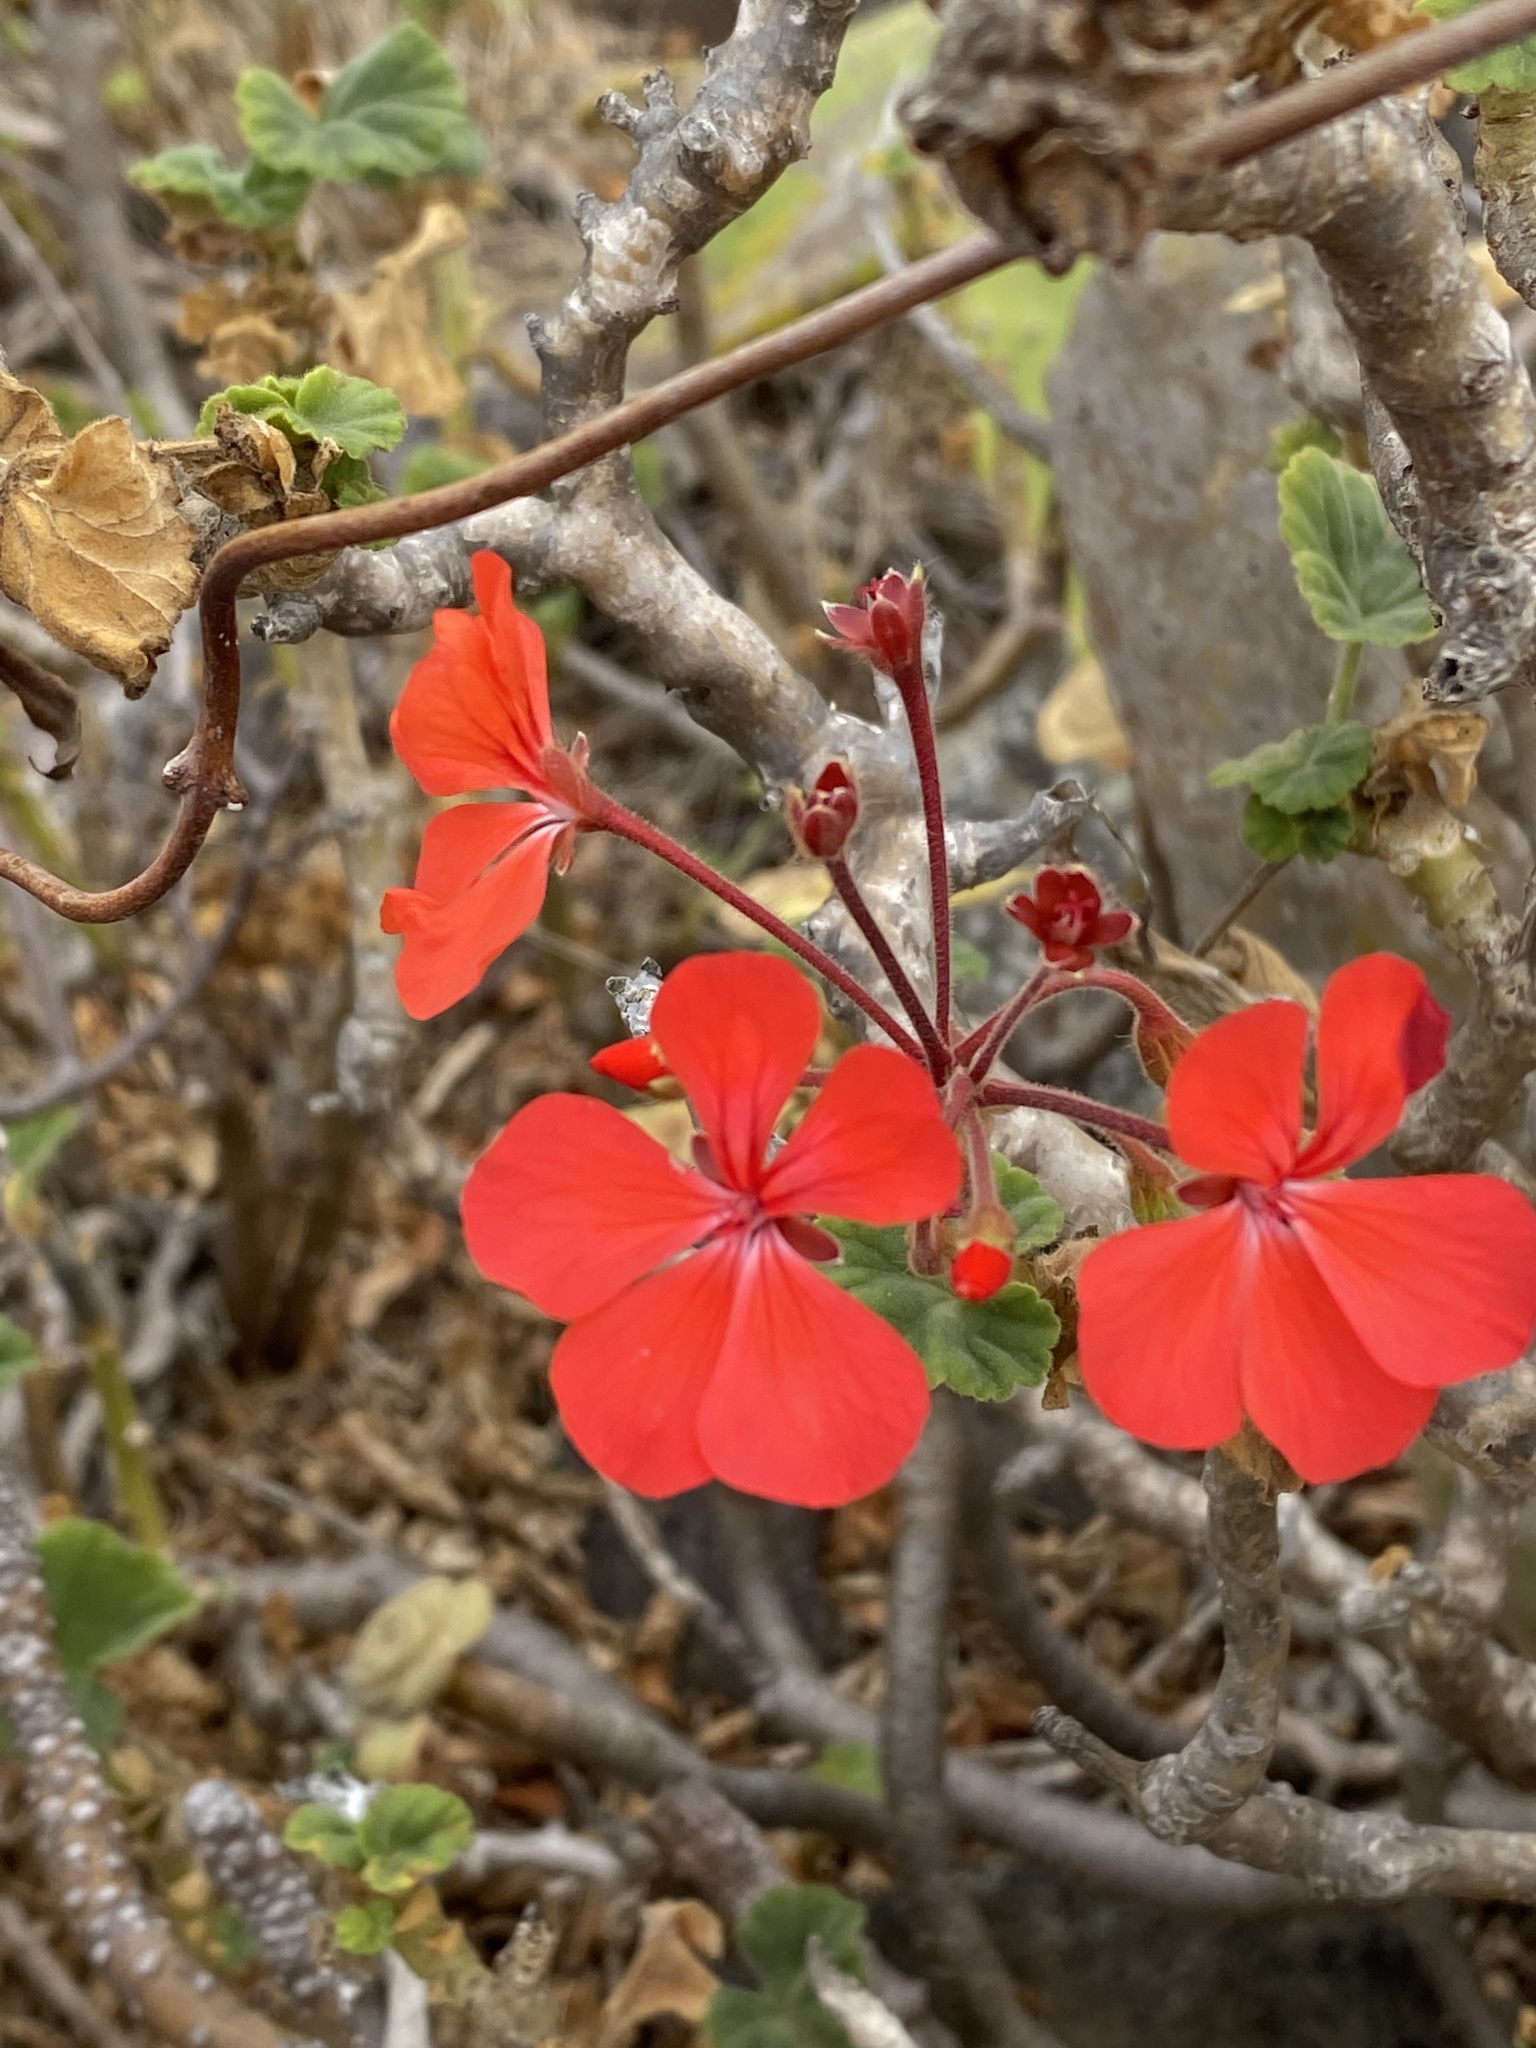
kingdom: Plantae
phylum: Tracheophyta
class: Magnoliopsida
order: Geraniales
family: Geraniaceae
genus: Pelargonium
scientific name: Pelargonium inquinans
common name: Scarlet geranium
